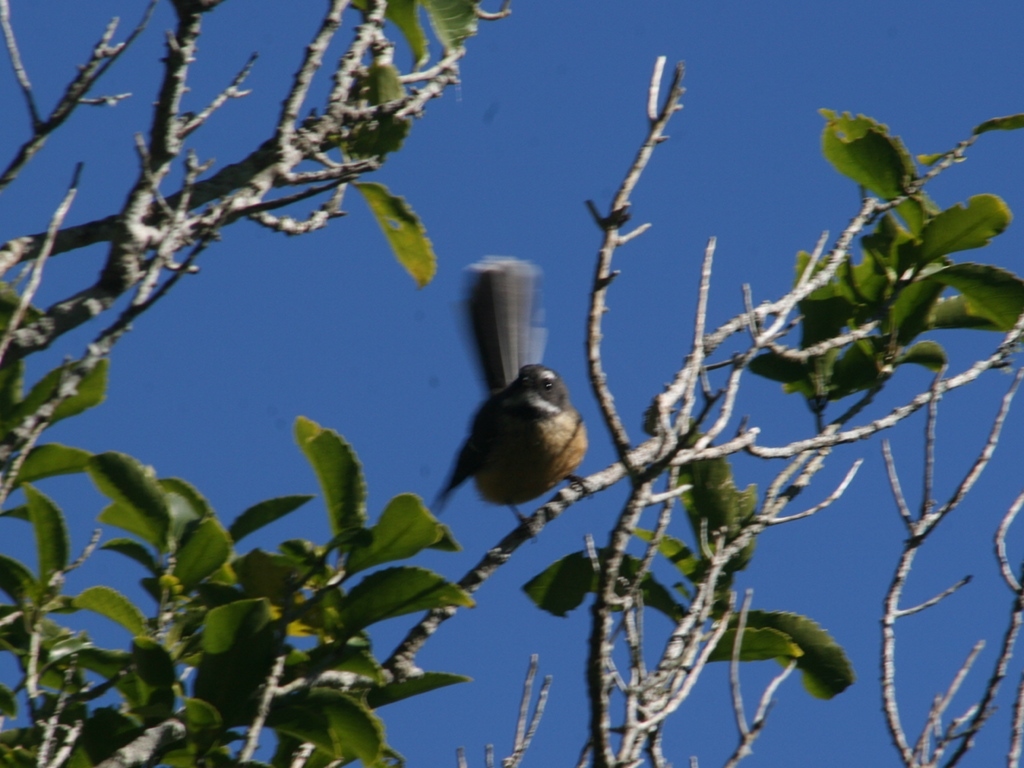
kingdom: Animalia
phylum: Chordata
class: Aves
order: Passeriformes
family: Rhipiduridae
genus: Rhipidura
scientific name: Rhipidura fuliginosa
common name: New zealand fantail
